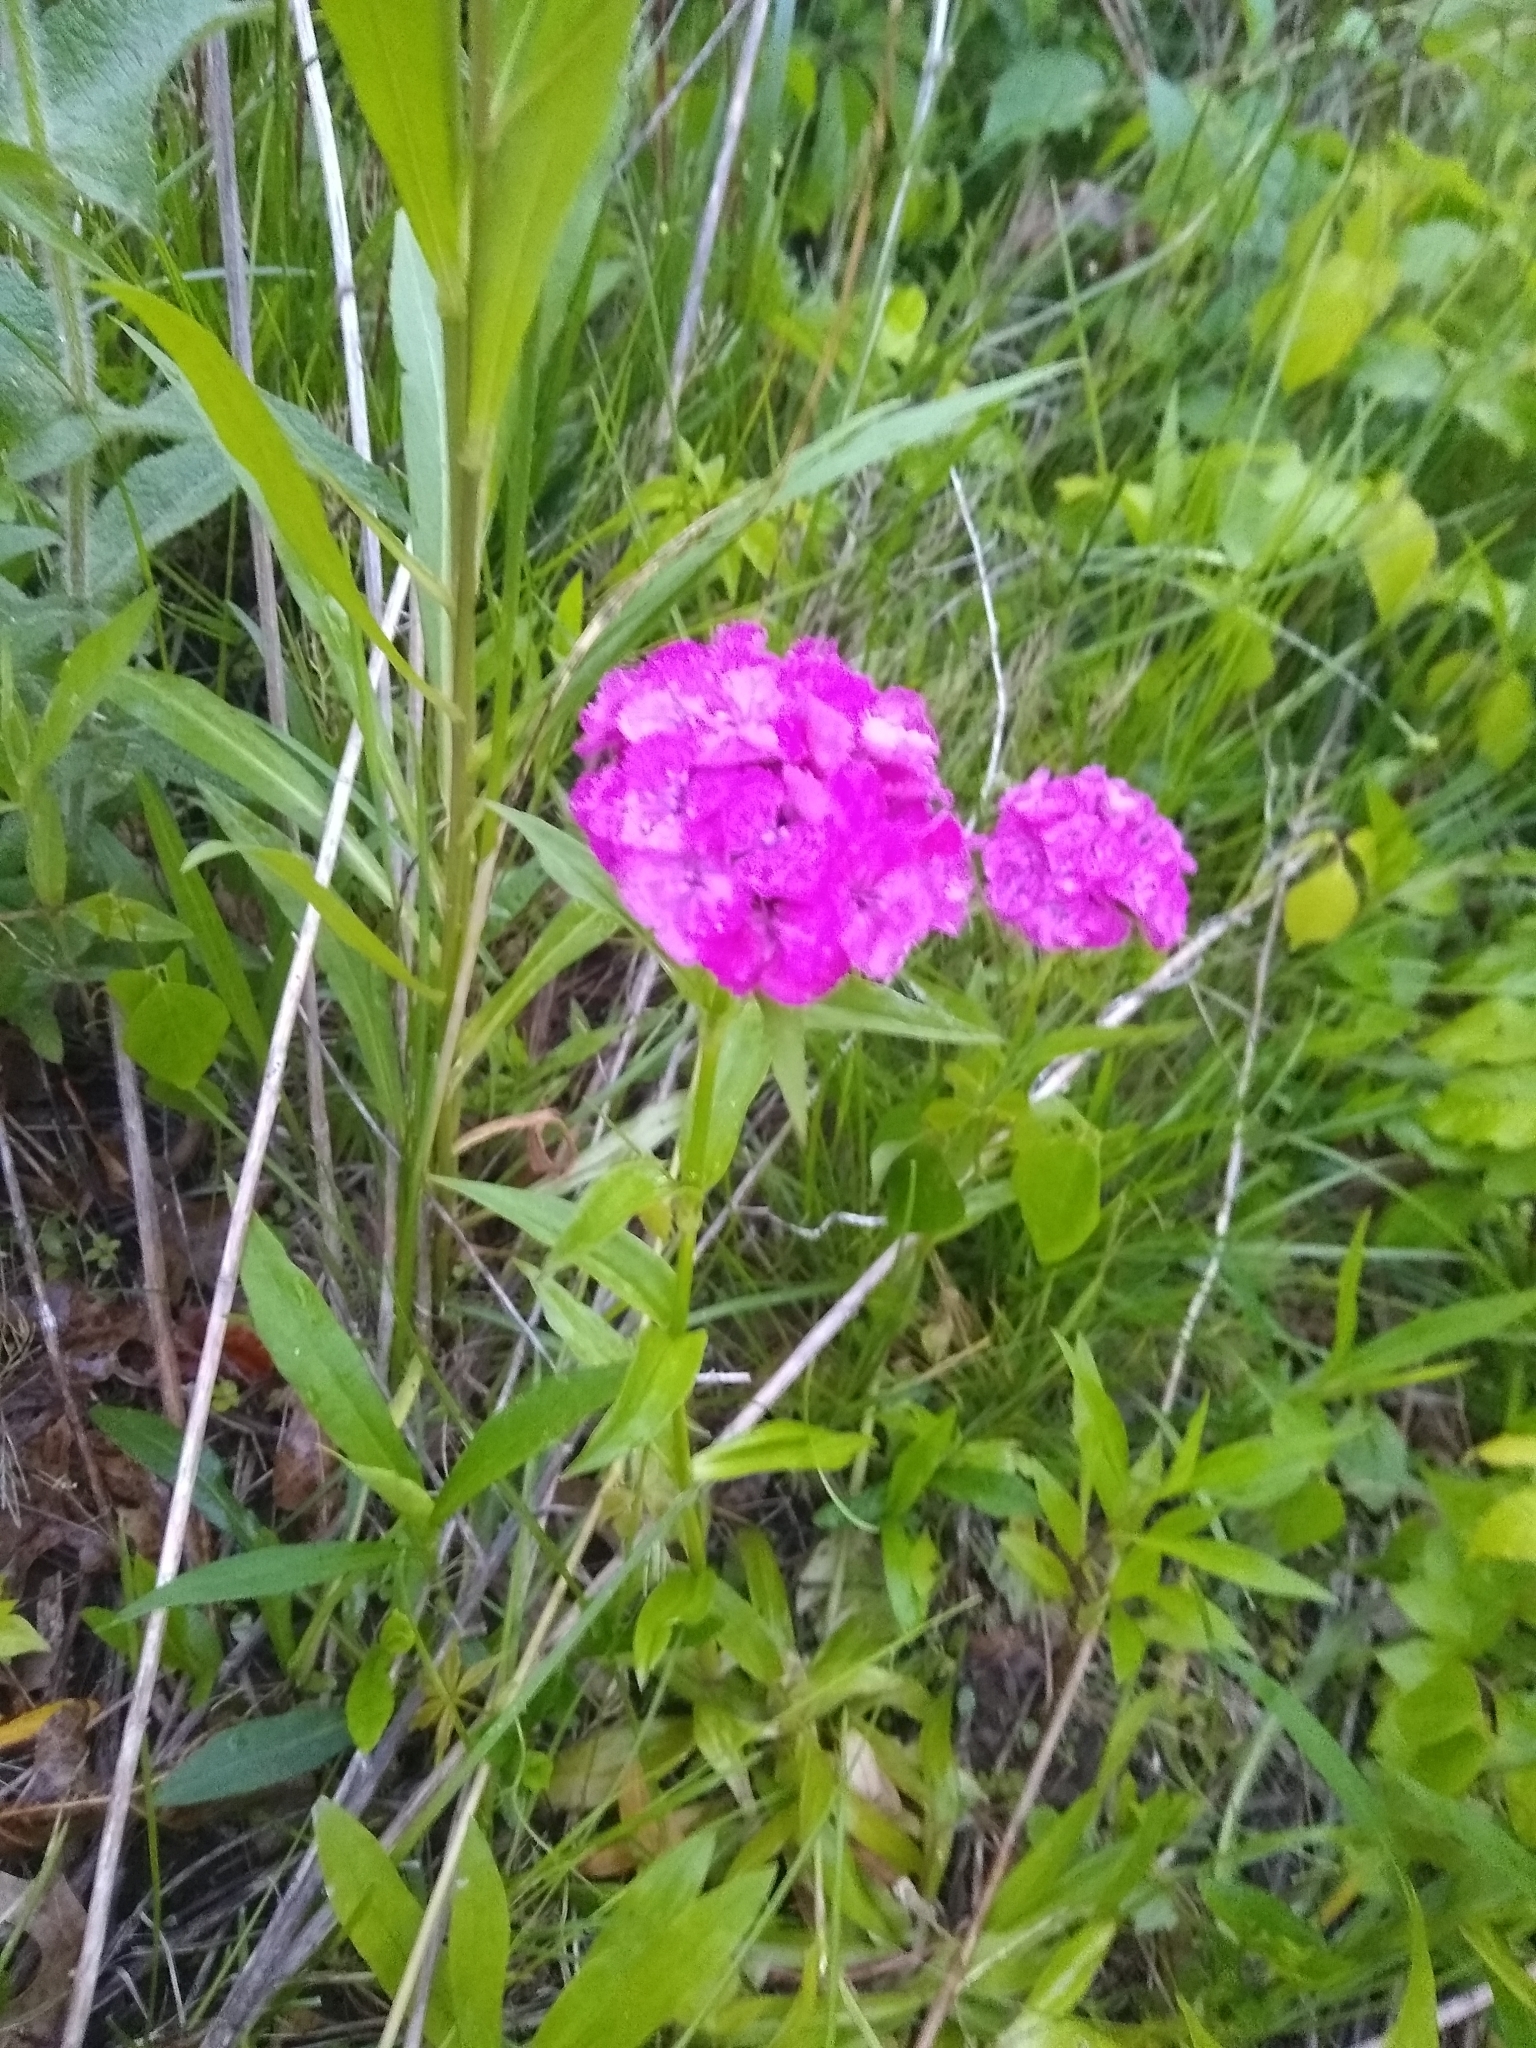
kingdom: Plantae
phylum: Tracheophyta
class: Magnoliopsida
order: Caryophyllales
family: Caryophyllaceae
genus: Dianthus
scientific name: Dianthus barbatus
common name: Sweet-william
